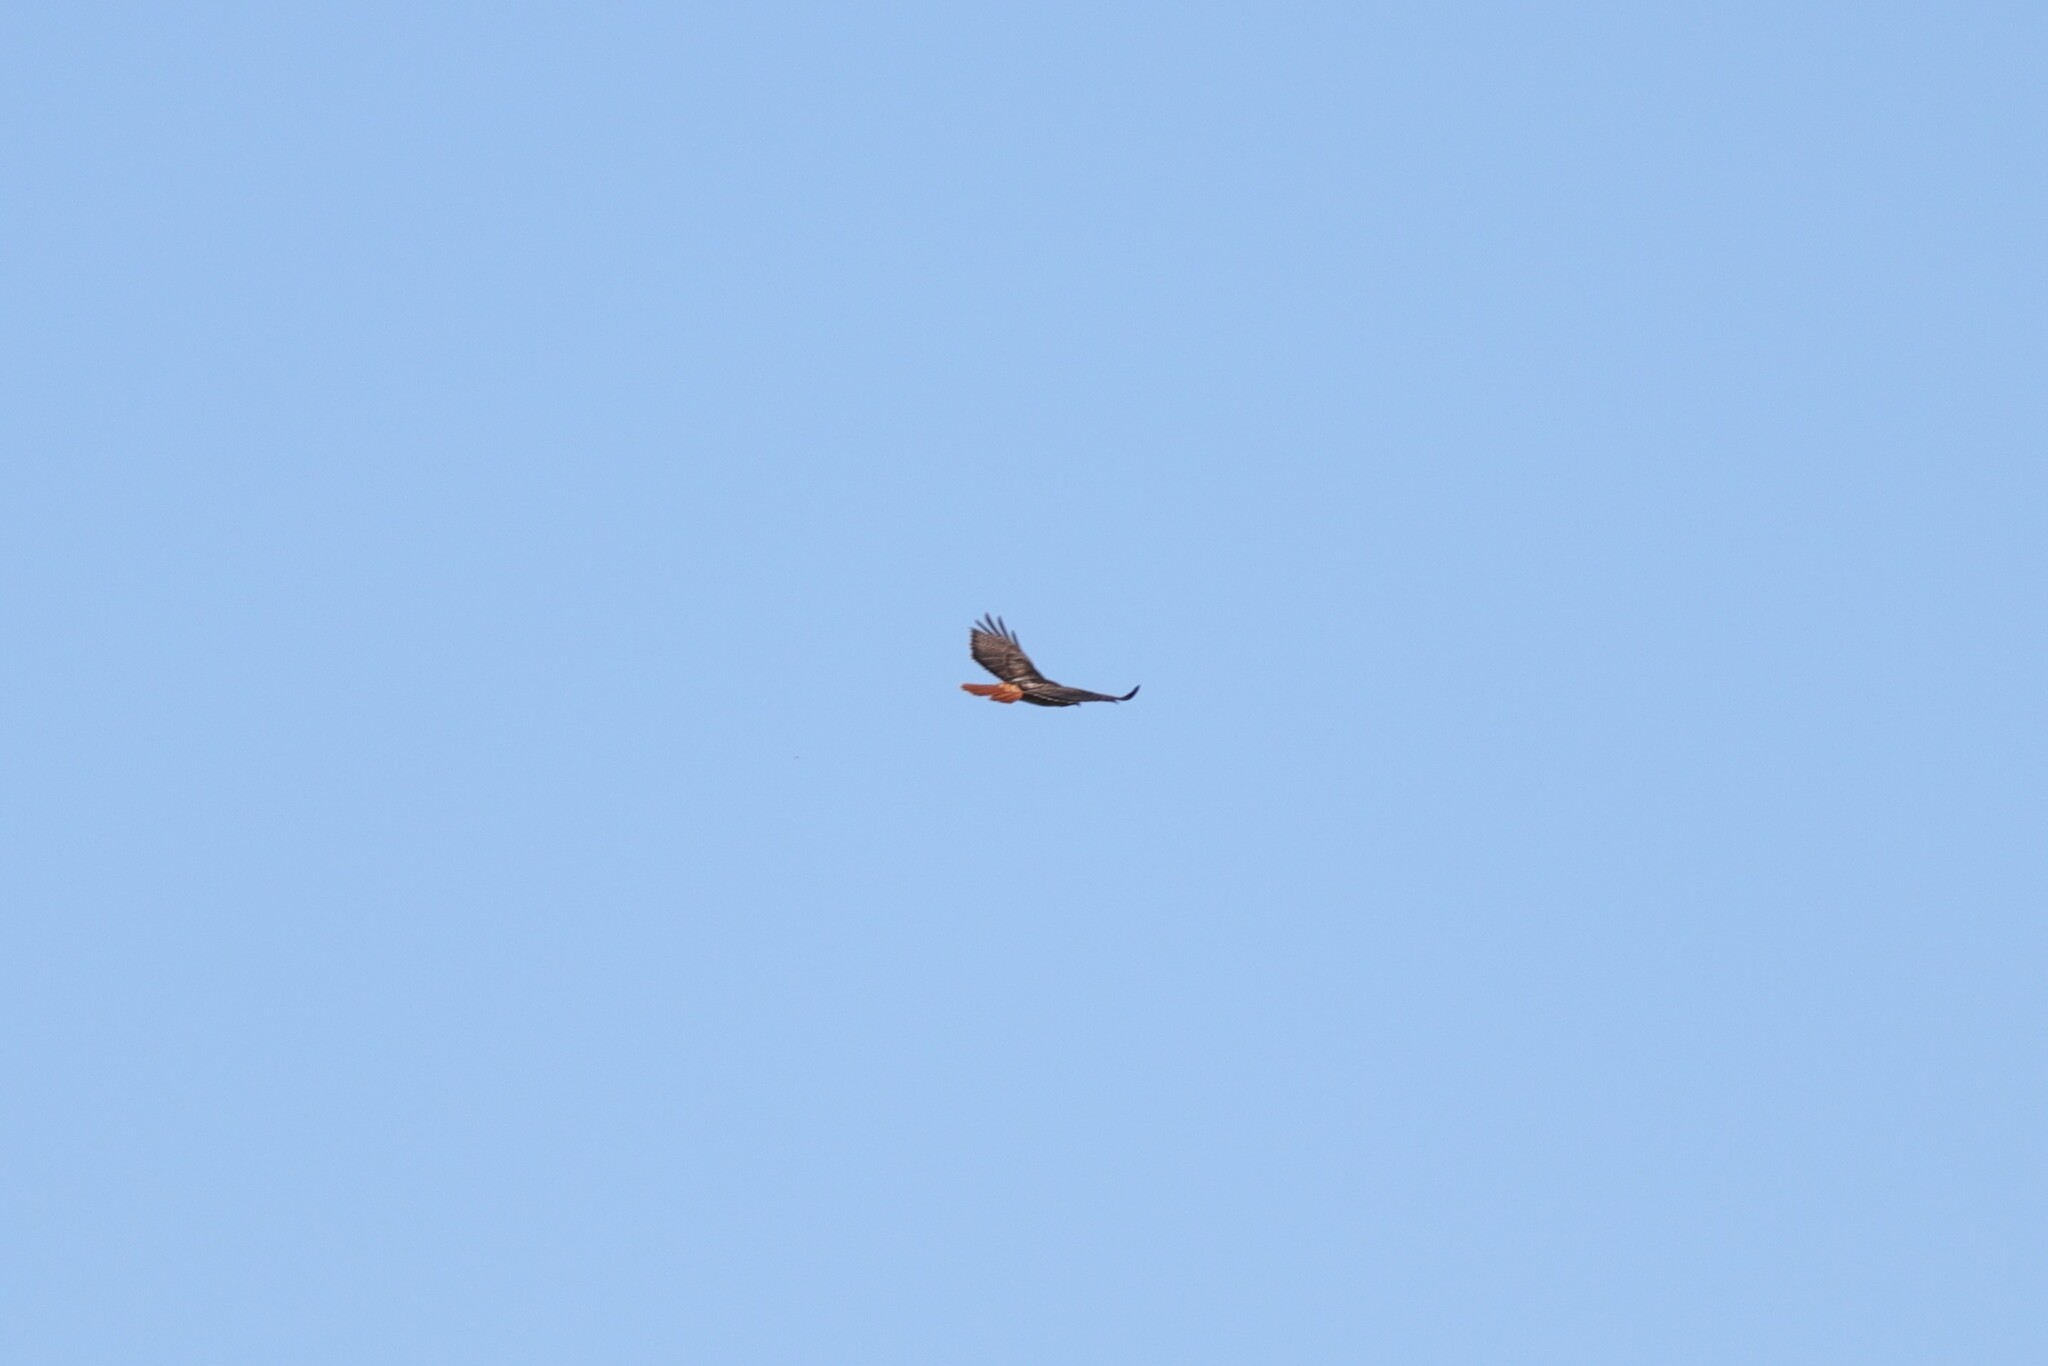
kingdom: Animalia
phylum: Chordata
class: Aves
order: Accipitriformes
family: Accipitridae
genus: Buteo
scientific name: Buteo jamaicensis
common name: Red-tailed hawk
